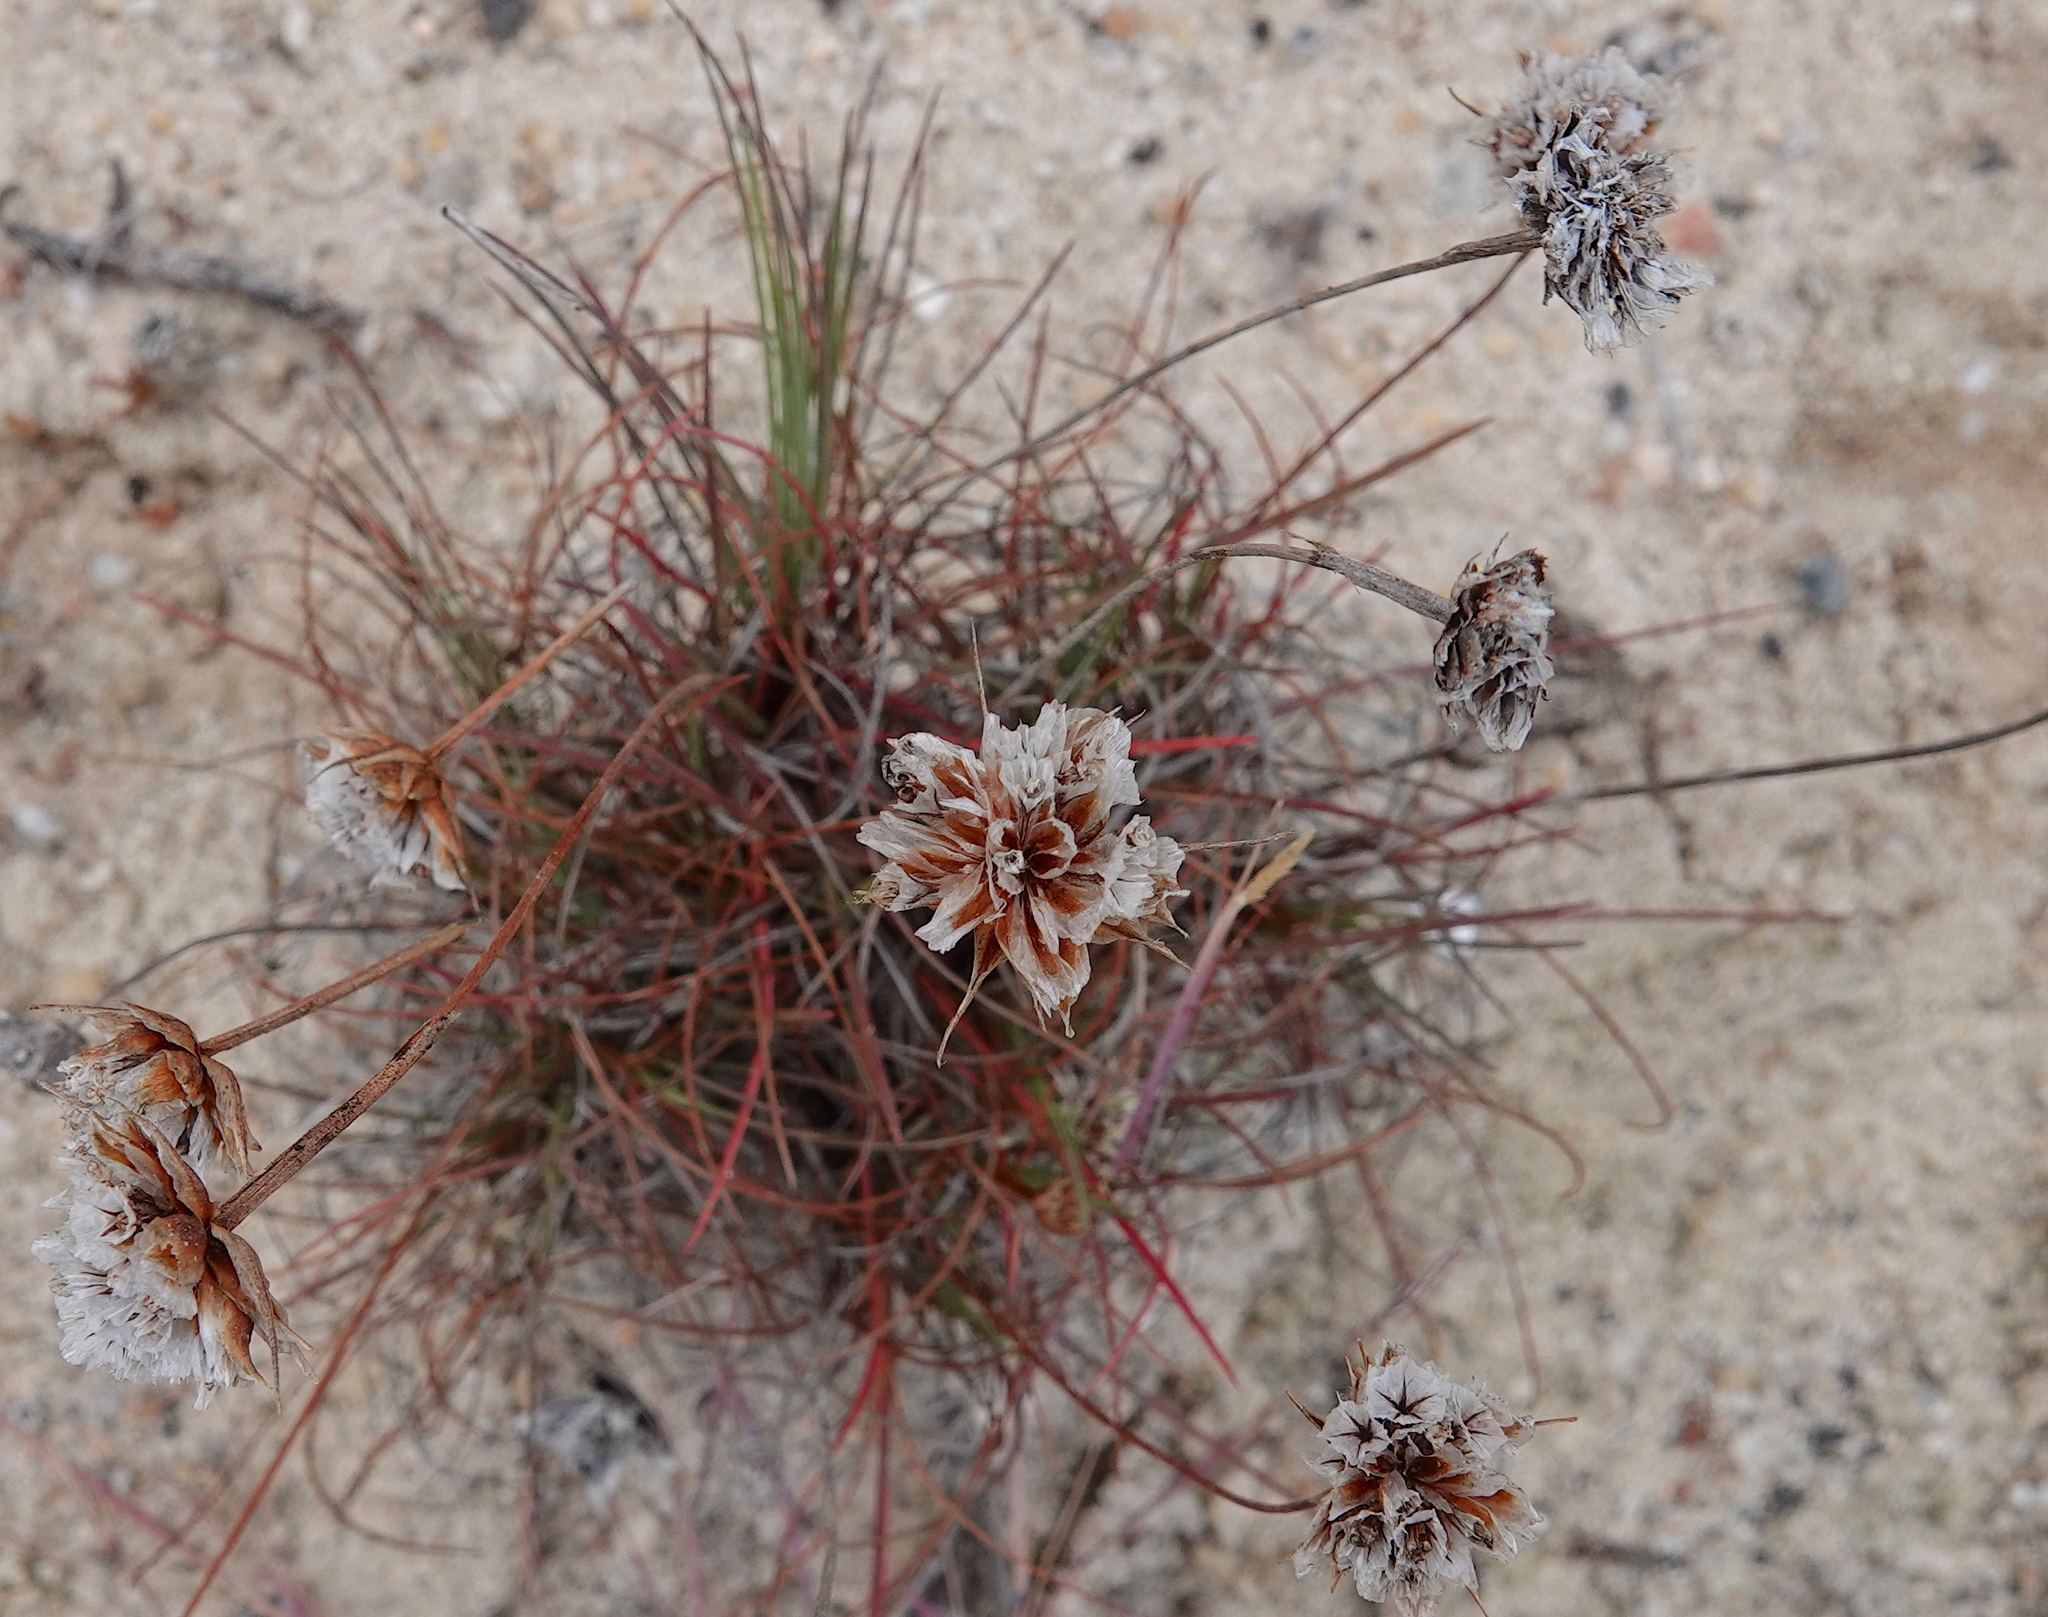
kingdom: Plantae
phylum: Tracheophyta
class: Magnoliopsida
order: Caryophyllales
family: Plumbaginaceae
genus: Armeria
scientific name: Armeria welwitschii
